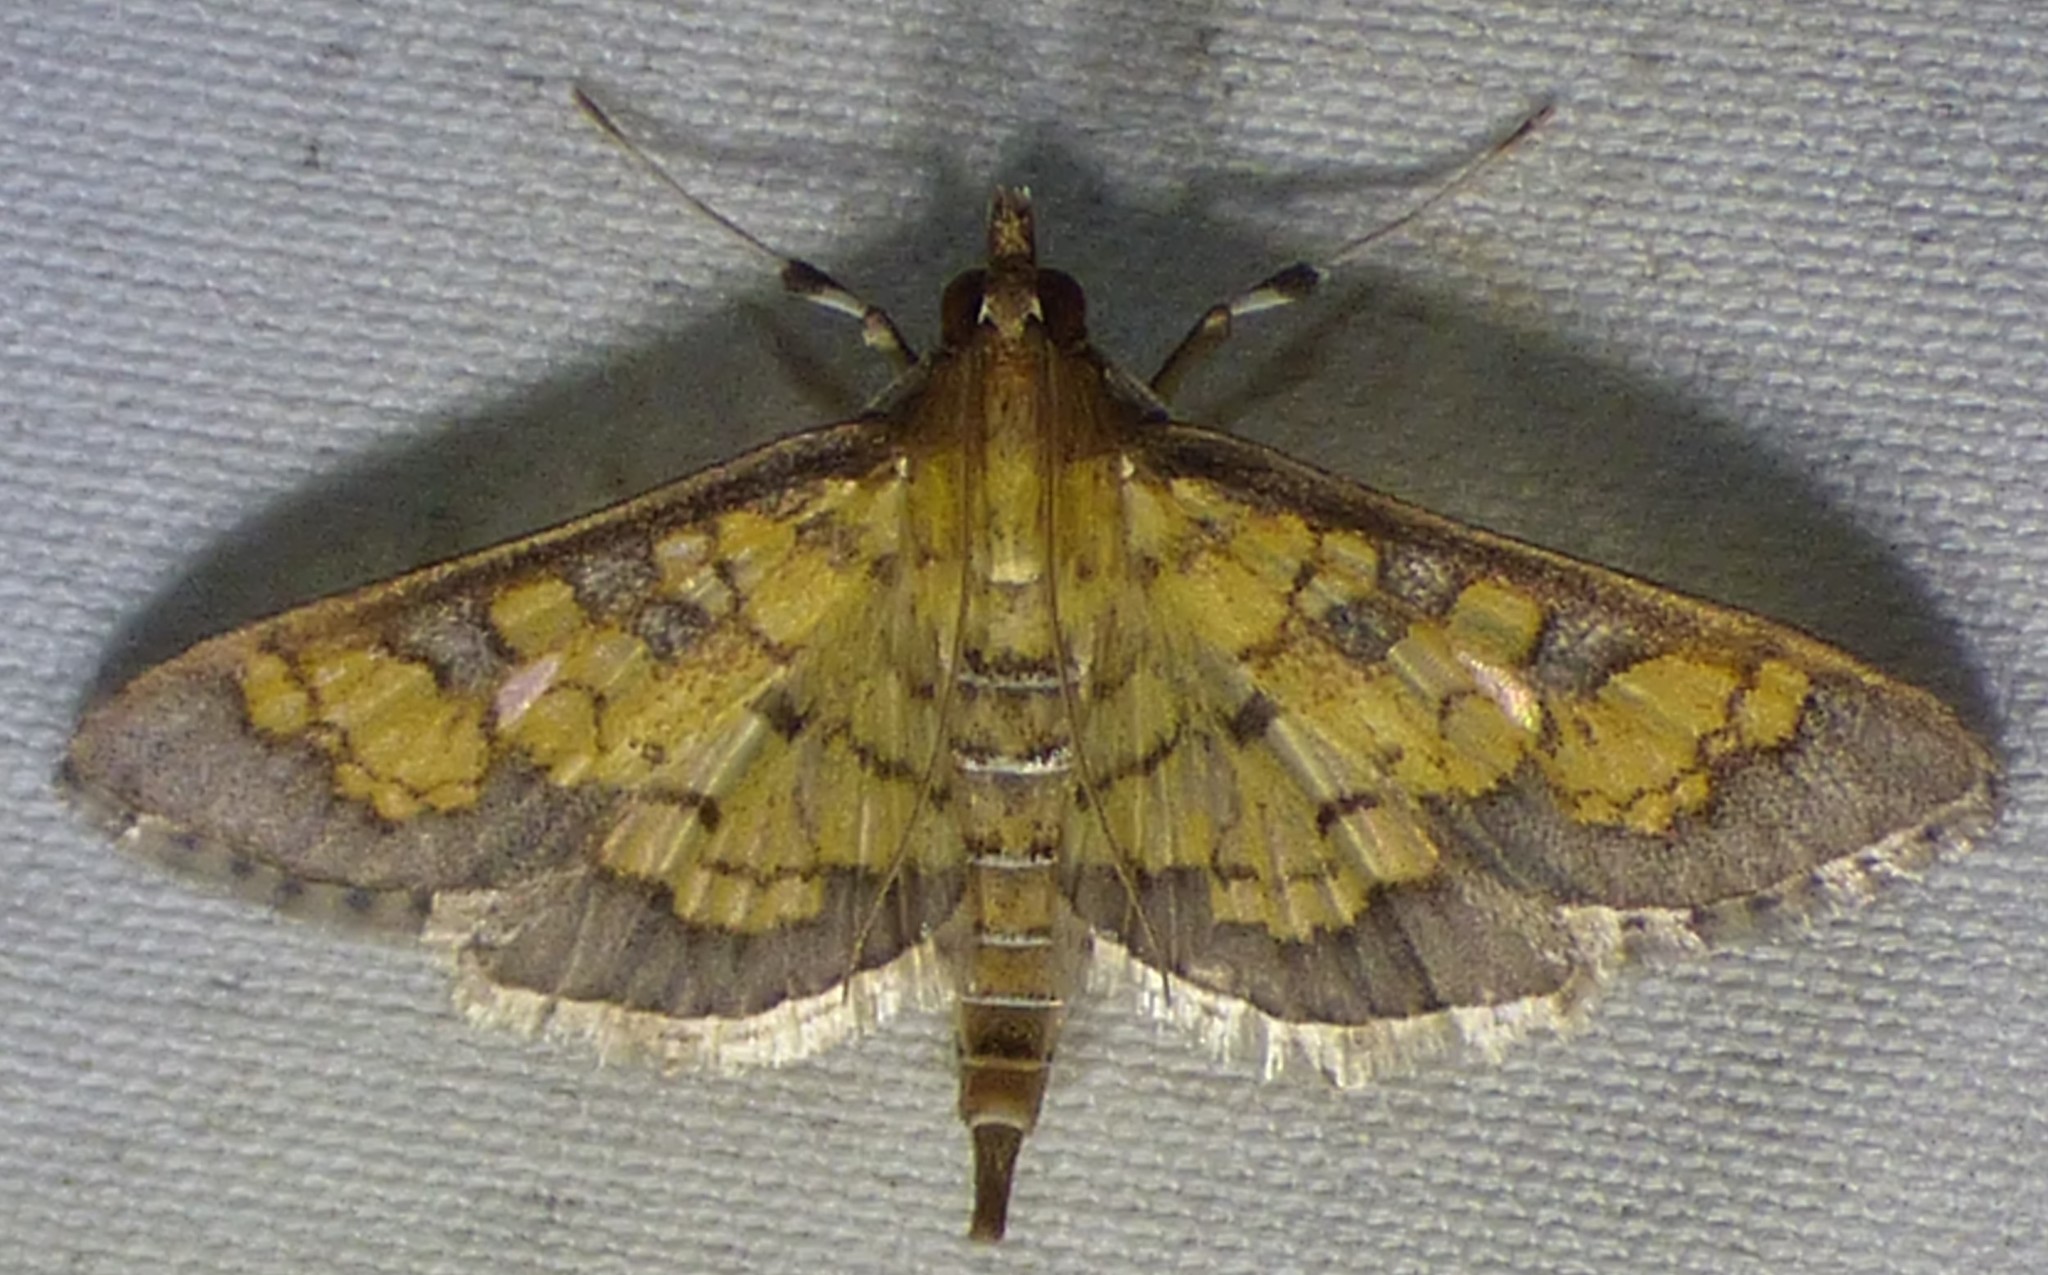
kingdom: Animalia
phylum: Arthropoda
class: Insecta
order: Lepidoptera
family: Crambidae
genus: Epipagis
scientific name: Epipagis adipaloides
